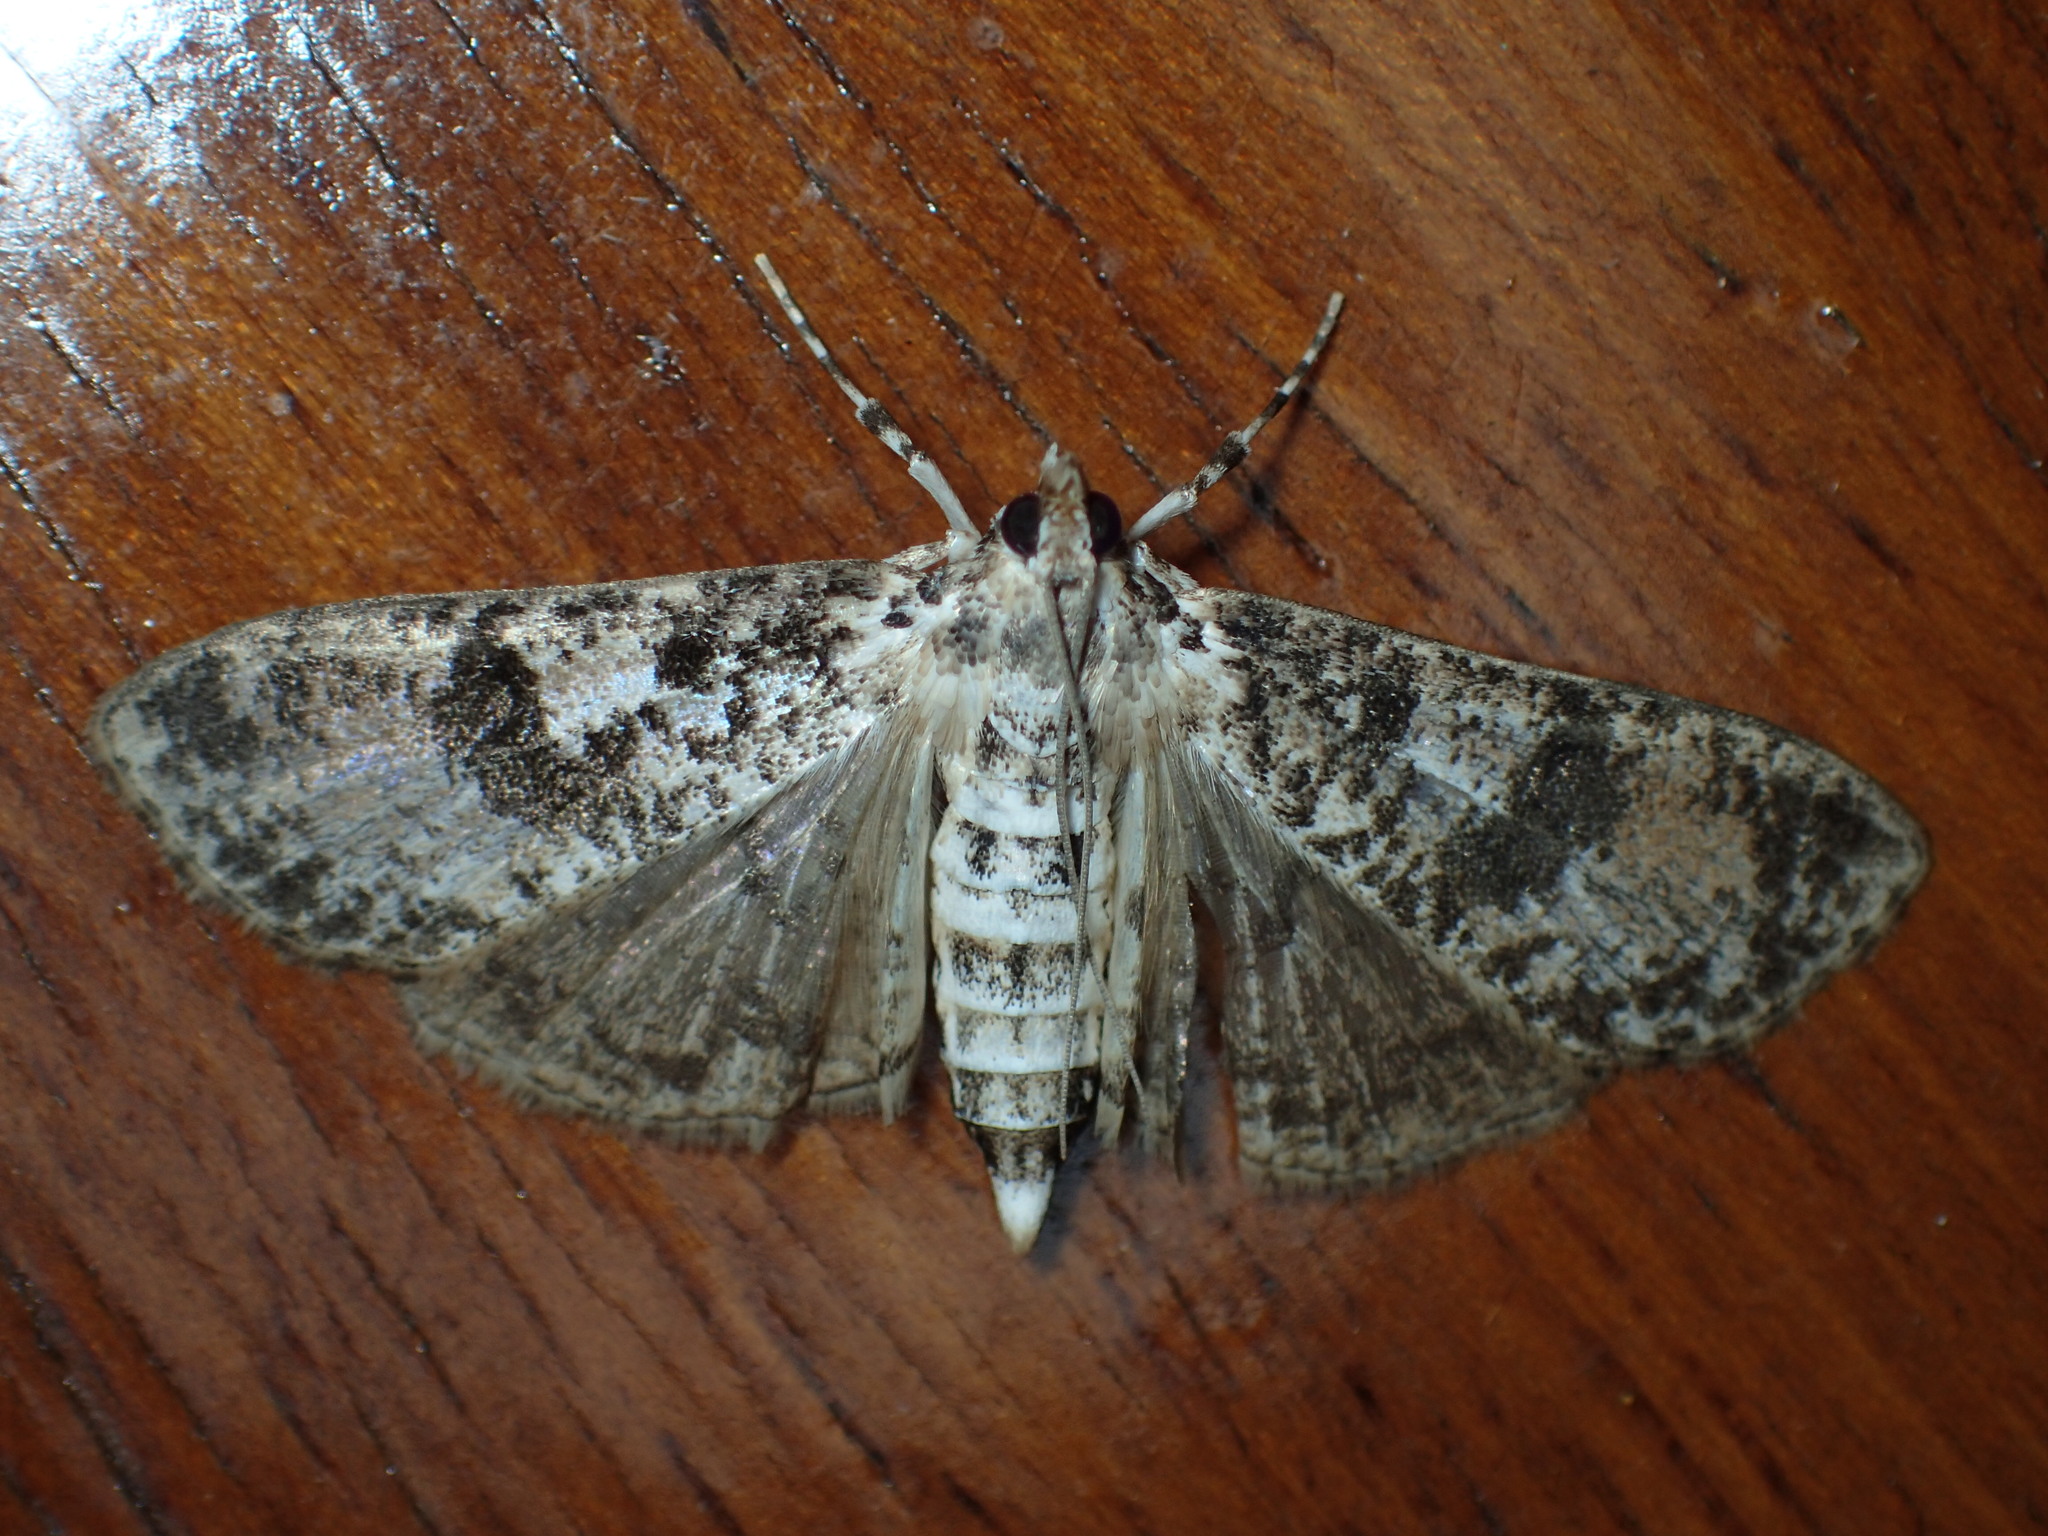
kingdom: Animalia
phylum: Arthropoda
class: Insecta
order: Lepidoptera
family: Crambidae
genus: Palpita
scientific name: Palpita magniferalis
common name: Splendid palpita moth
